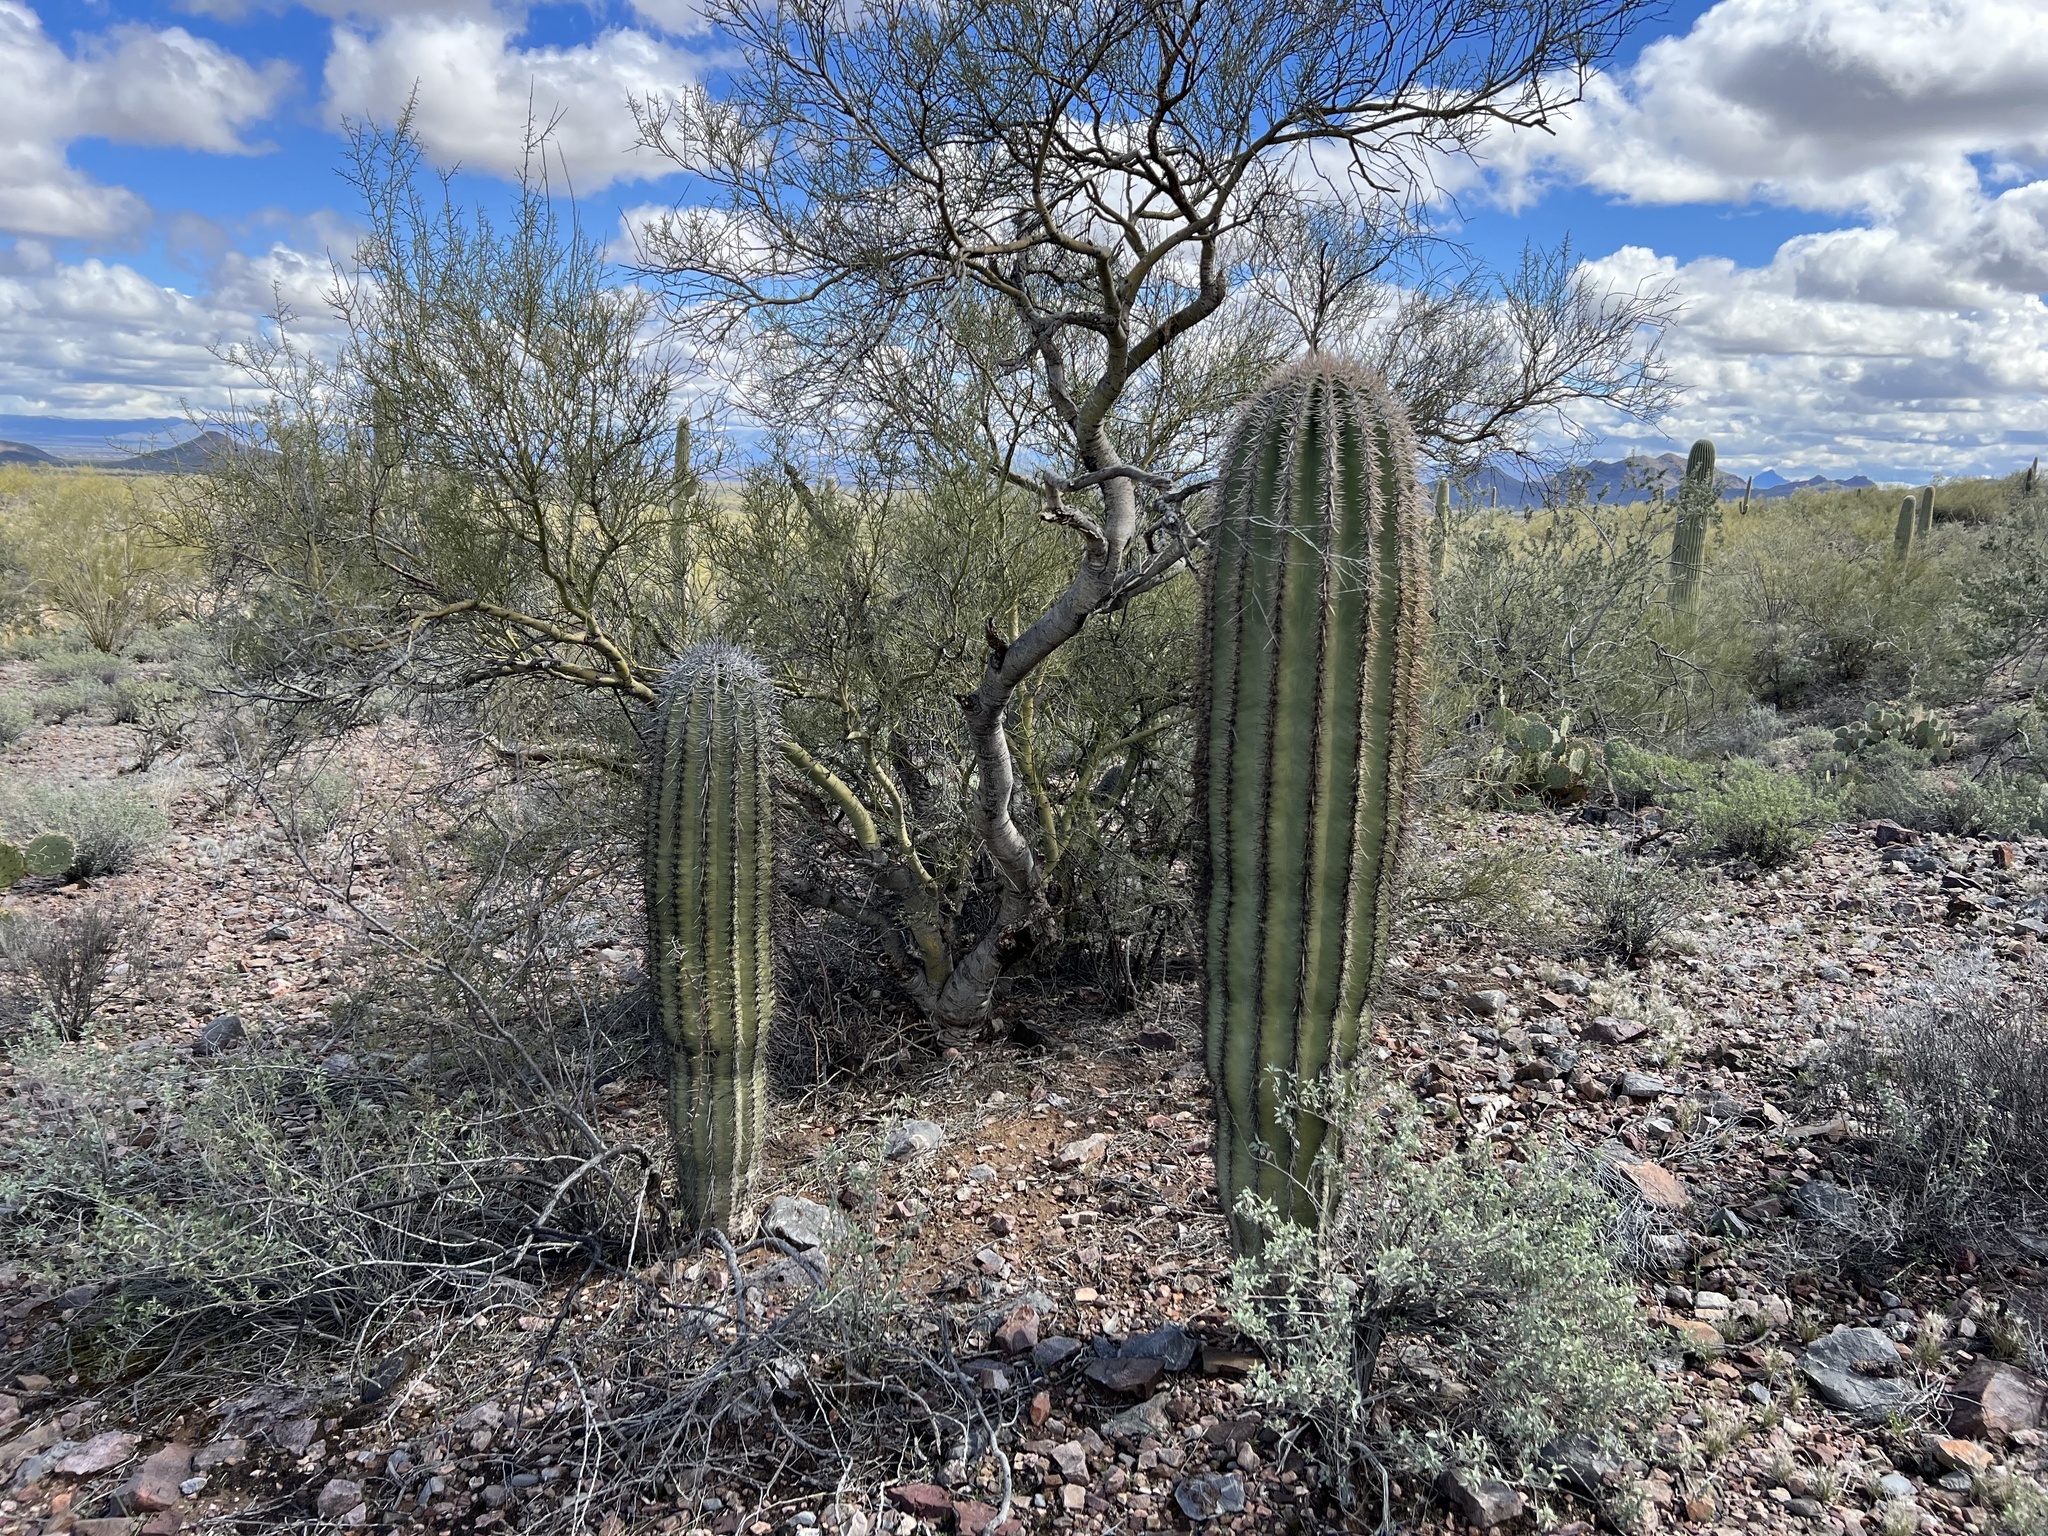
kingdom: Plantae
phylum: Tracheophyta
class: Magnoliopsida
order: Caryophyllales
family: Cactaceae
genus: Carnegiea
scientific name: Carnegiea gigantea
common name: Saguaro
